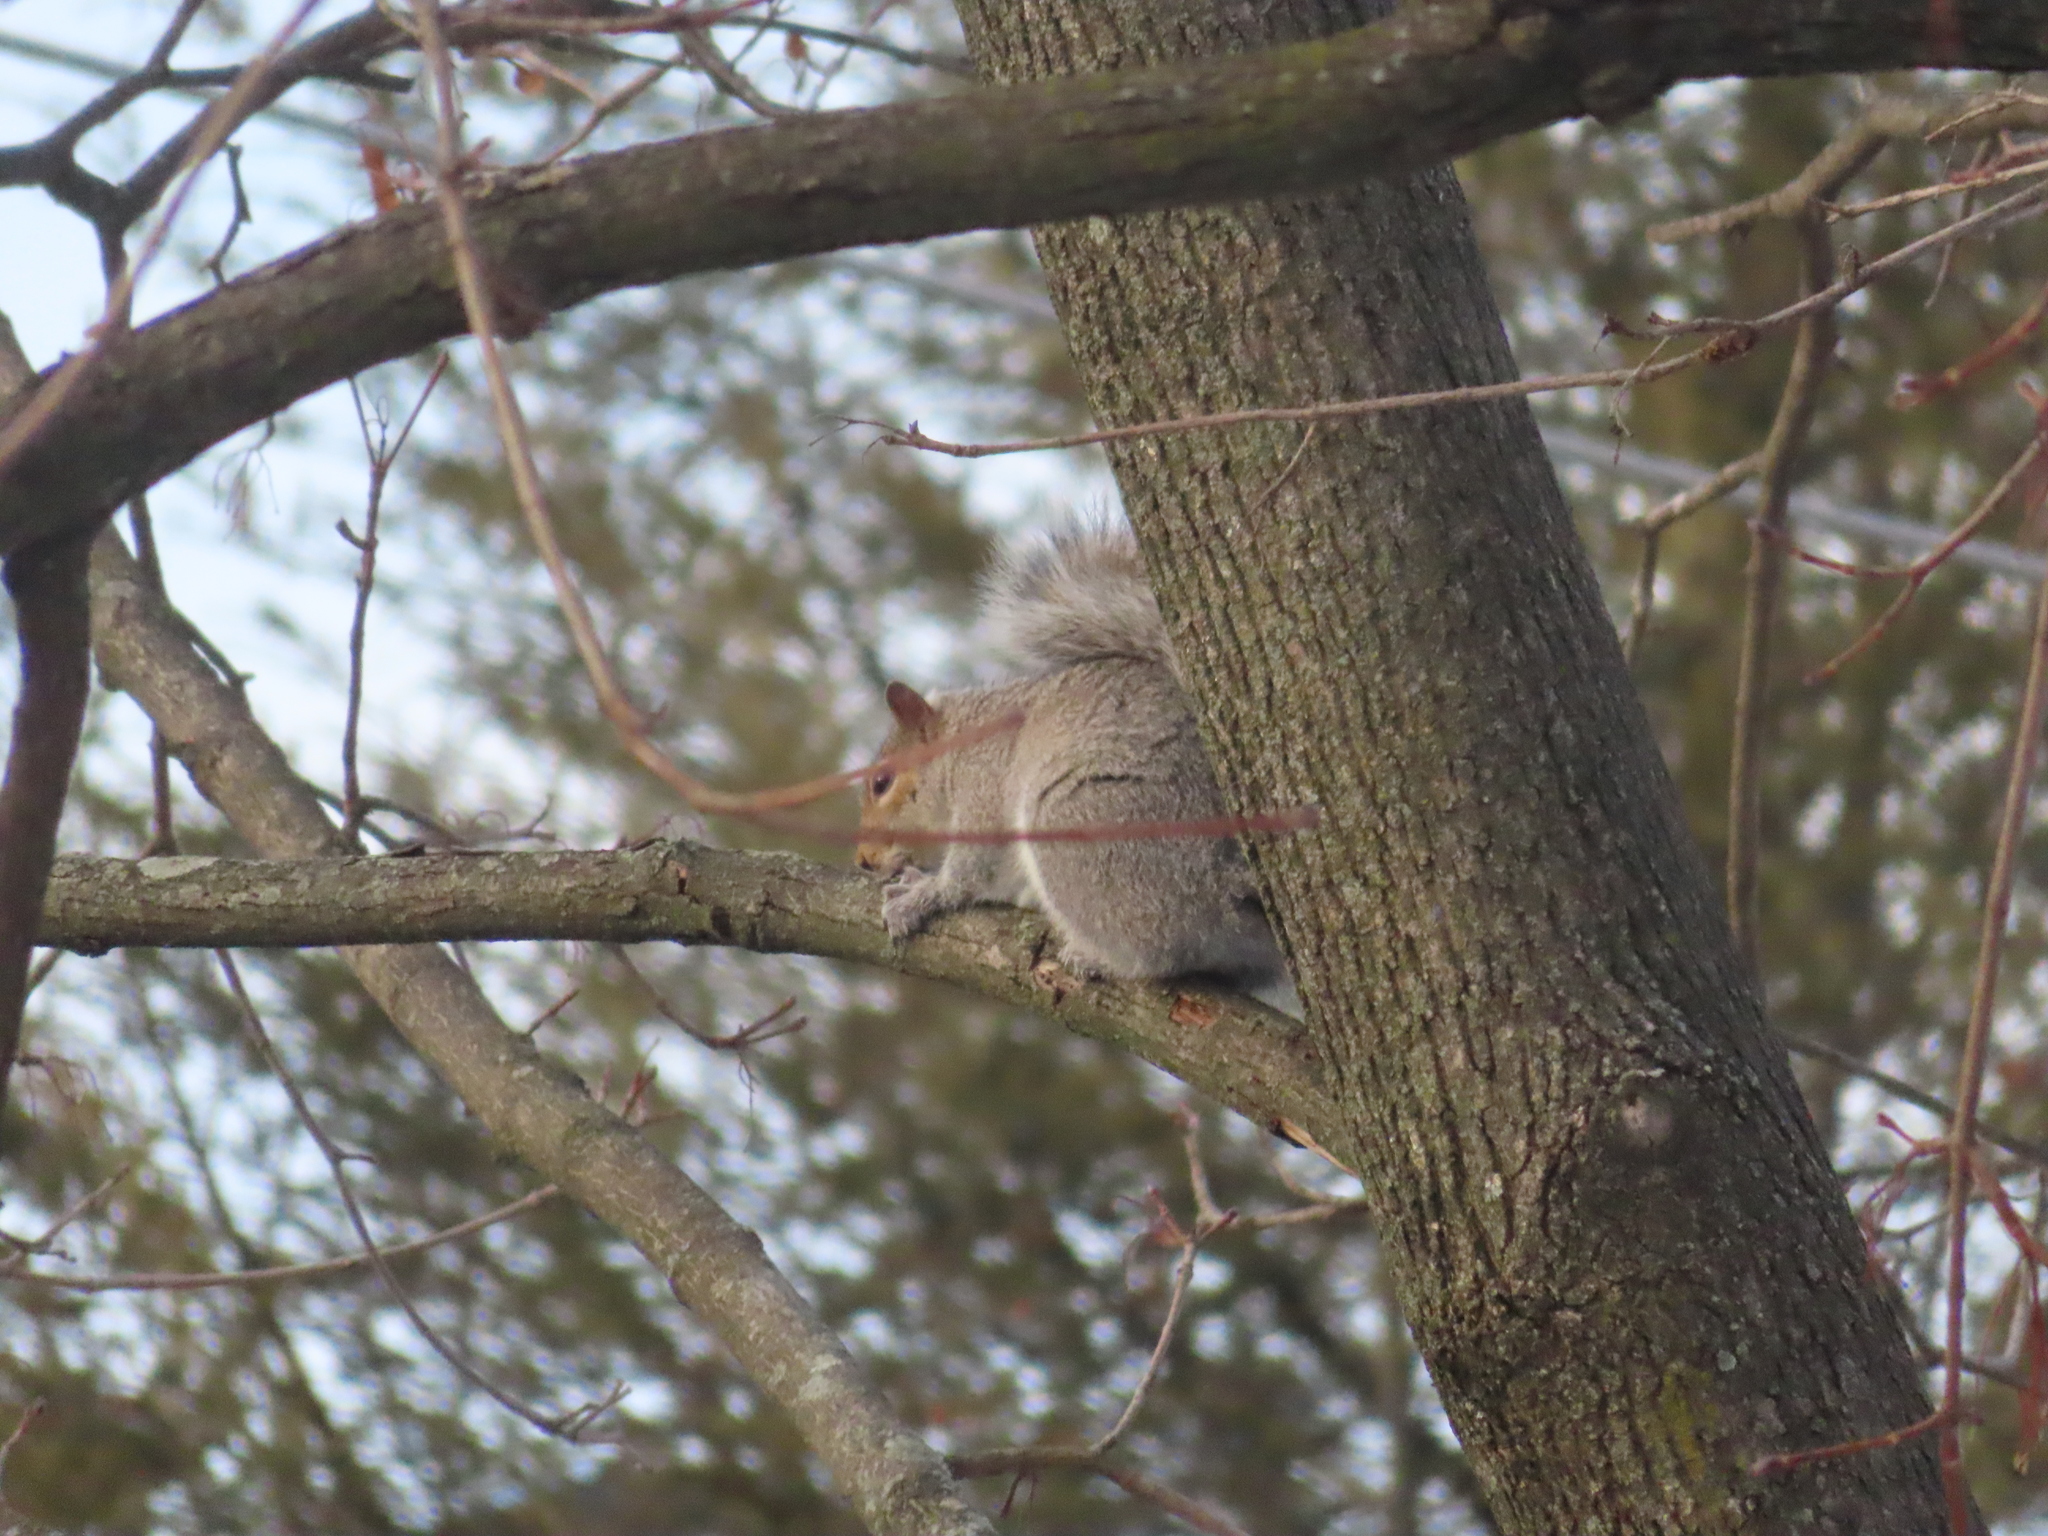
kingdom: Animalia
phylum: Chordata
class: Mammalia
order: Rodentia
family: Sciuridae
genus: Sciurus
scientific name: Sciurus carolinensis
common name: Eastern gray squirrel
